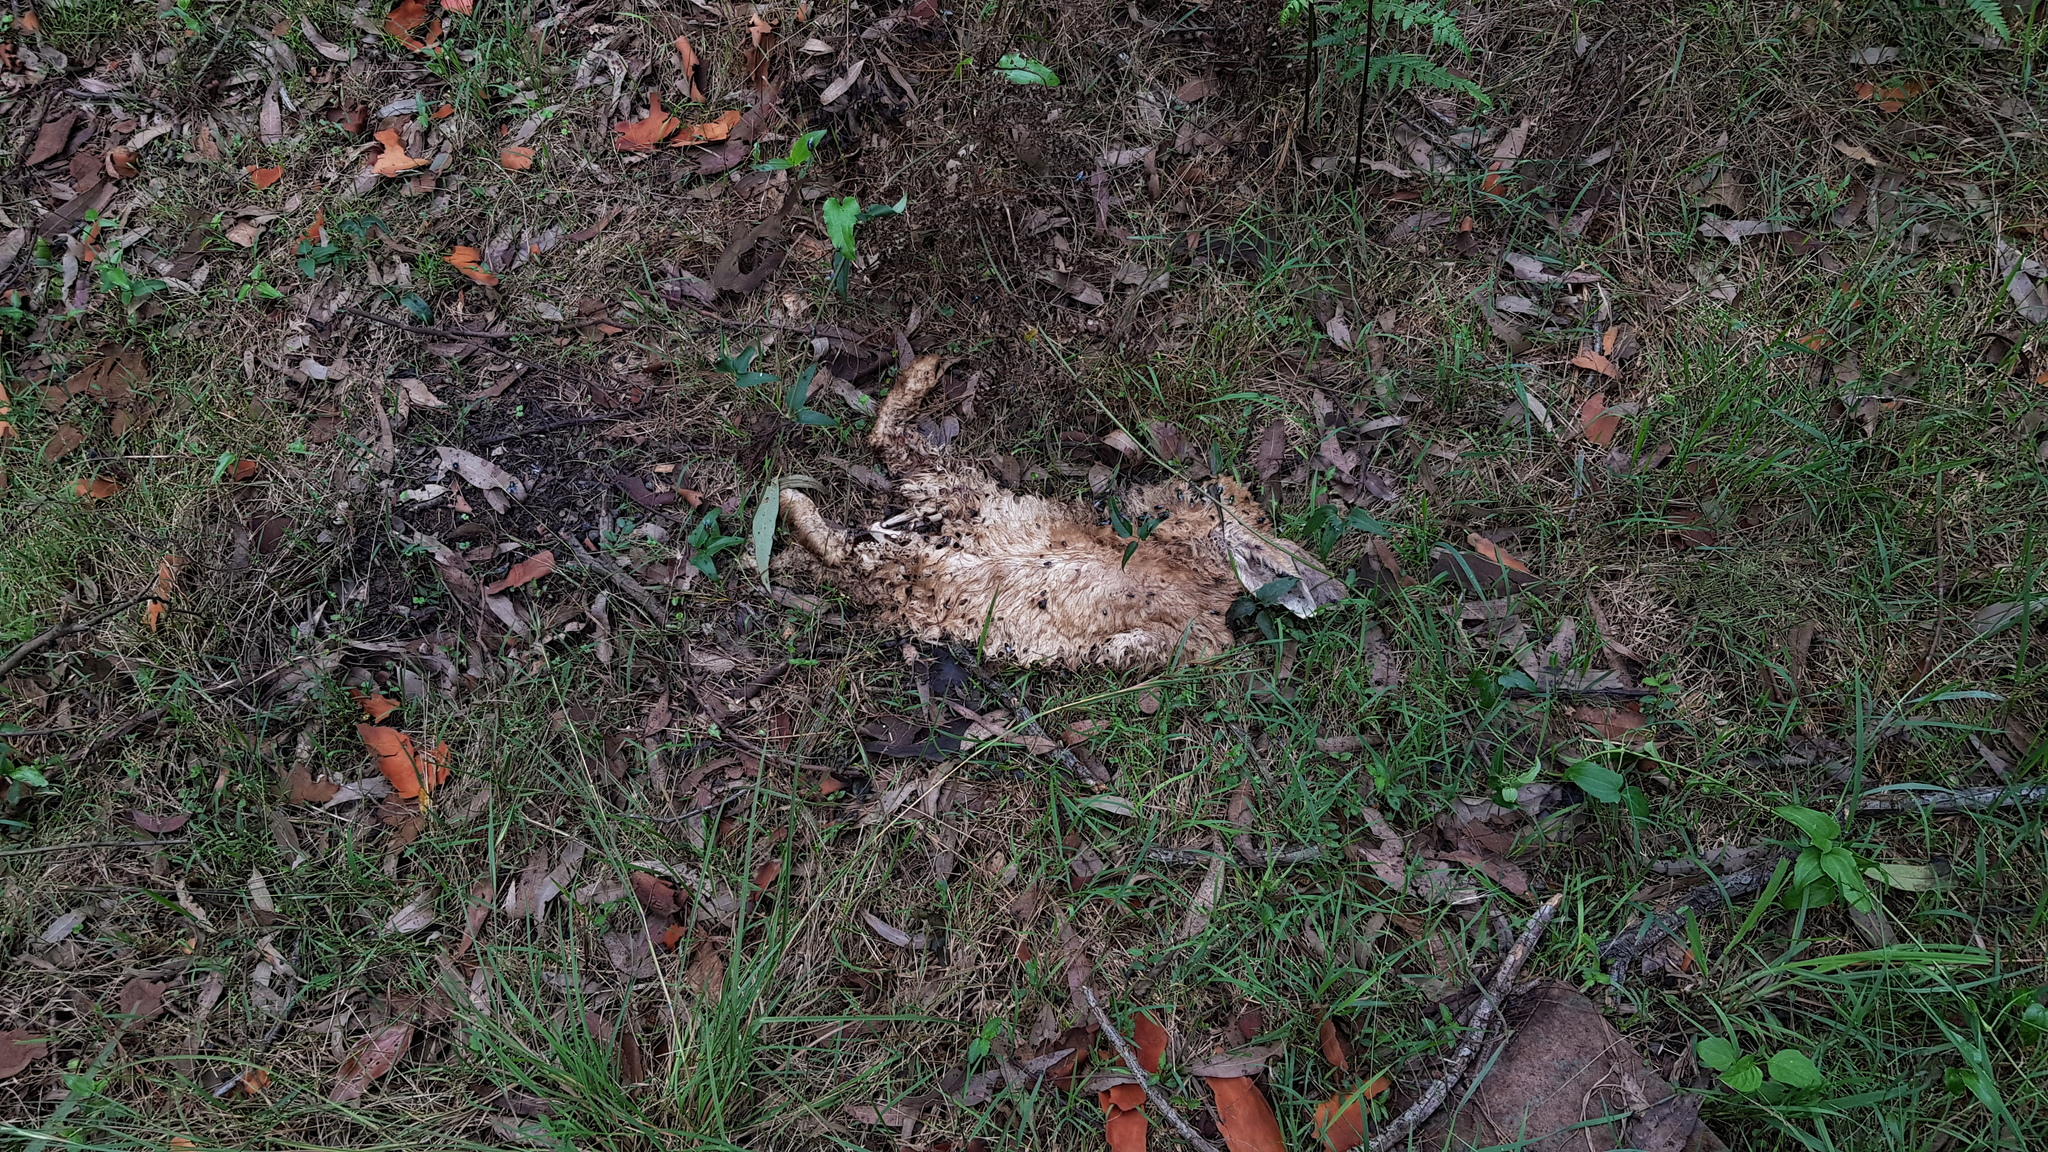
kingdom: Animalia
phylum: Chordata
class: Mammalia
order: Lagomorpha
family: Leporidae
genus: Oryctolagus
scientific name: Oryctolagus cuniculus
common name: European rabbit
